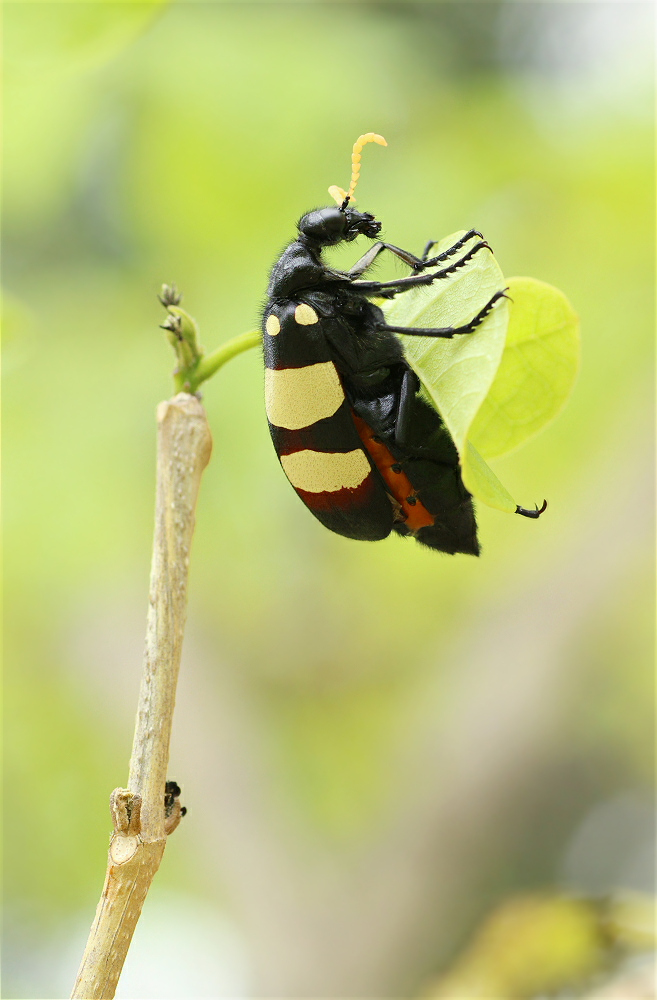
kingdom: Animalia
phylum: Arthropoda
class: Insecta
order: Coleoptera
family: Meloidae
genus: Hycleus
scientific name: Hycleus
